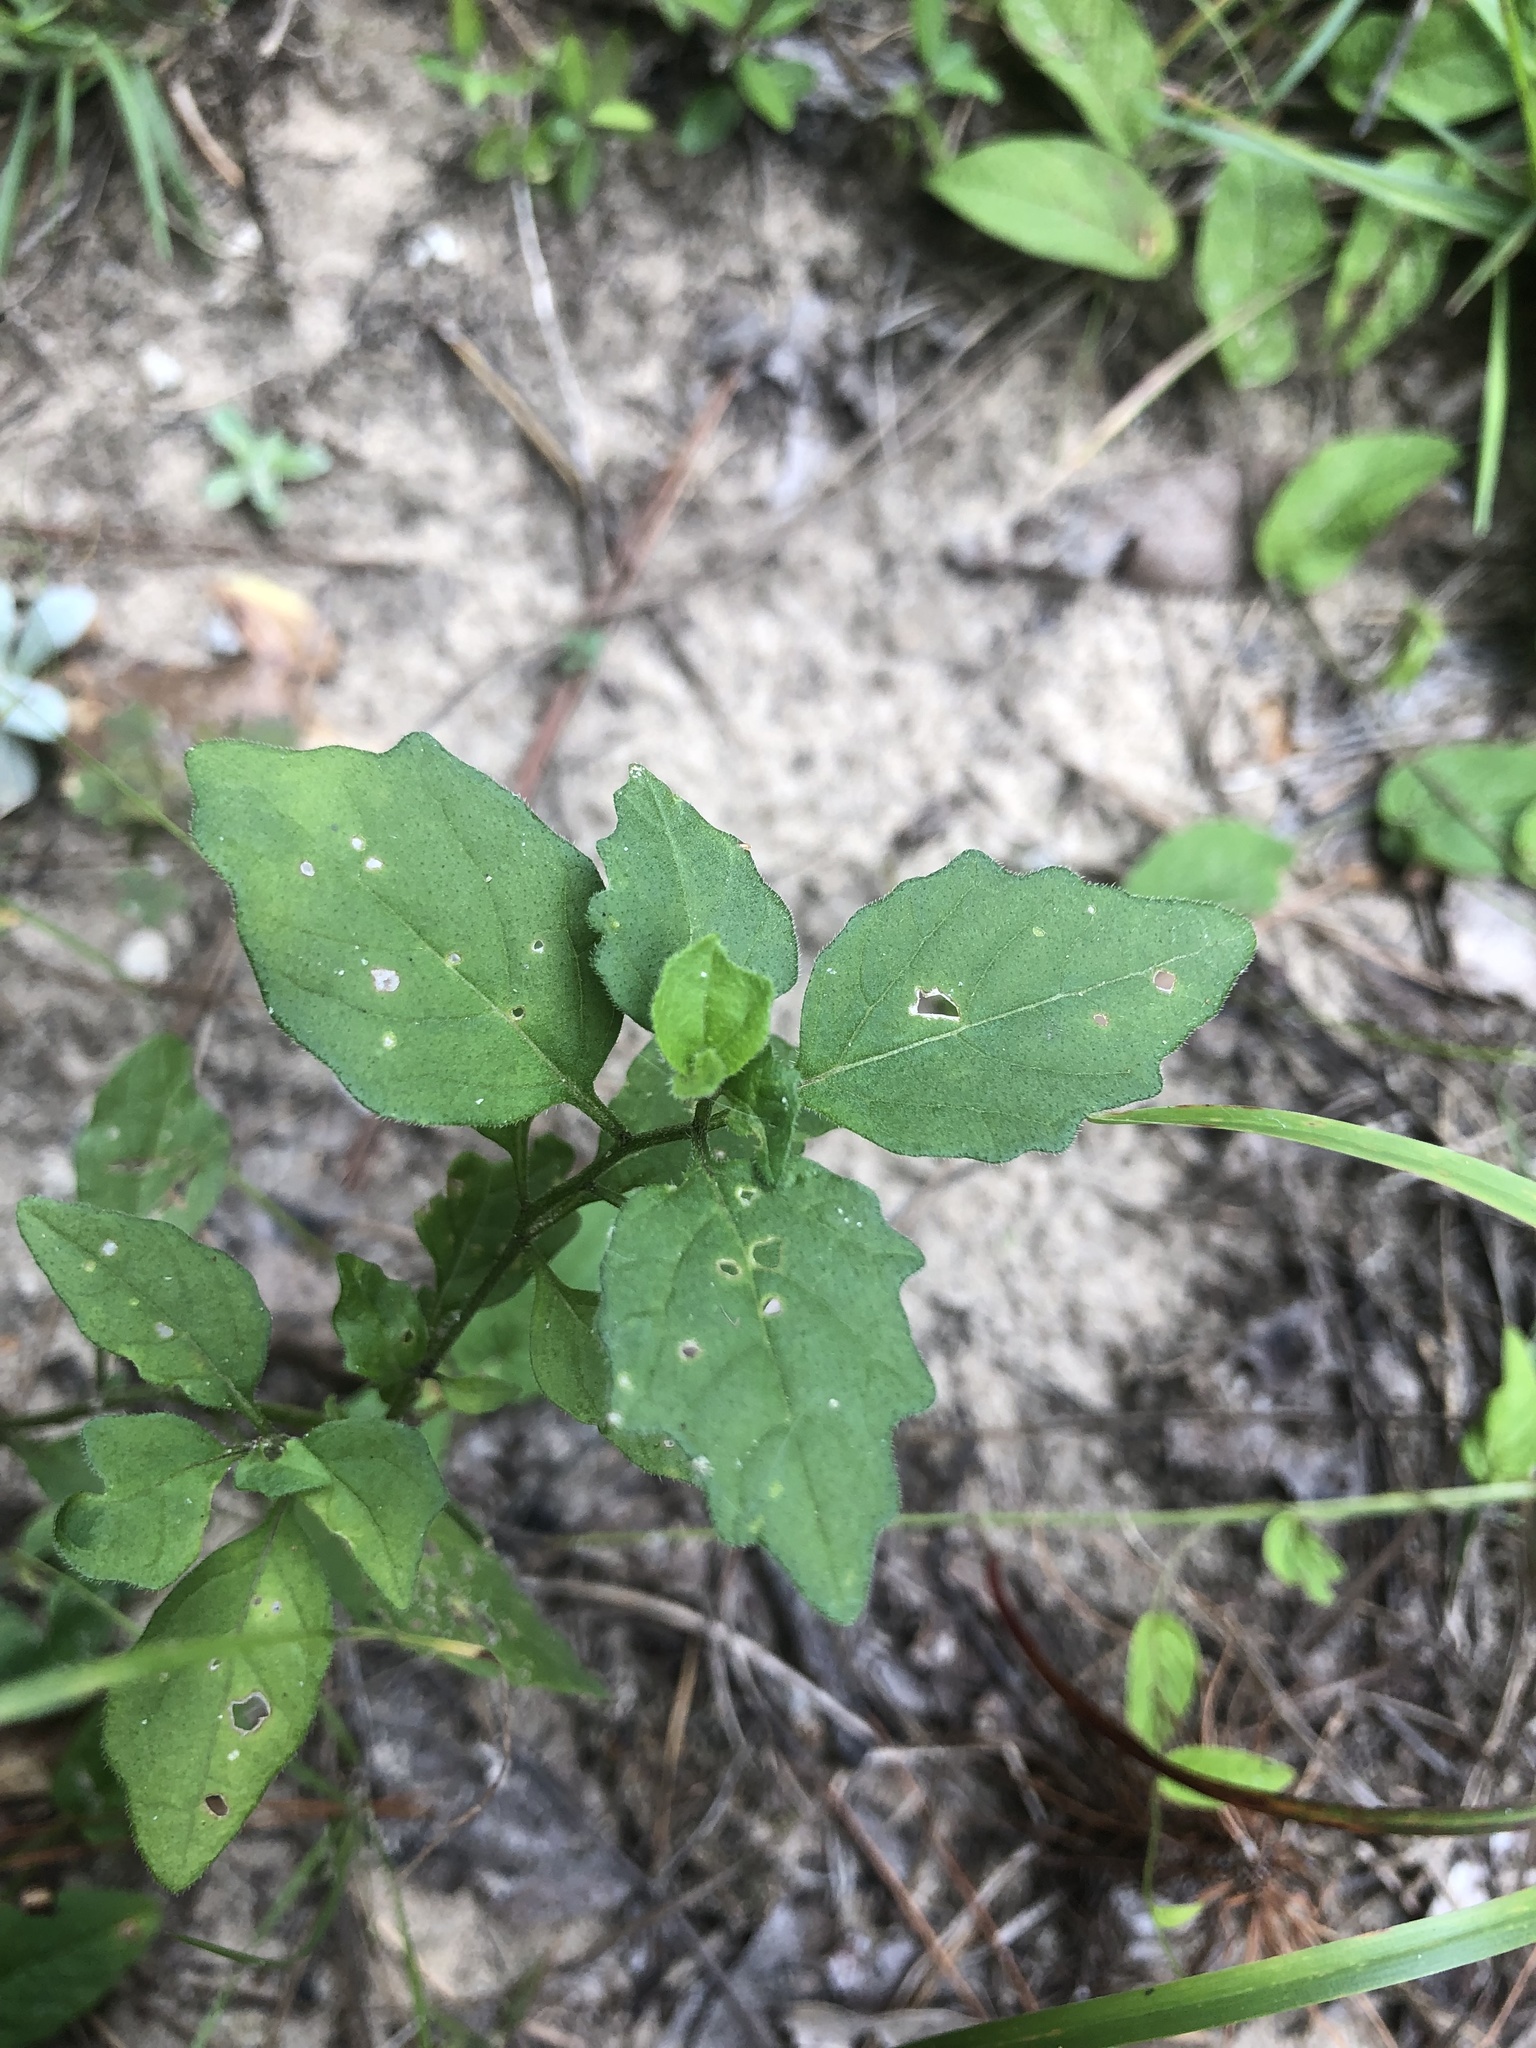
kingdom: Plantae
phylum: Tracheophyta
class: Magnoliopsida
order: Solanales
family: Solanaceae
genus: Physalis
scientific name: Physalis virginiana
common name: Virginia ground-cherry
